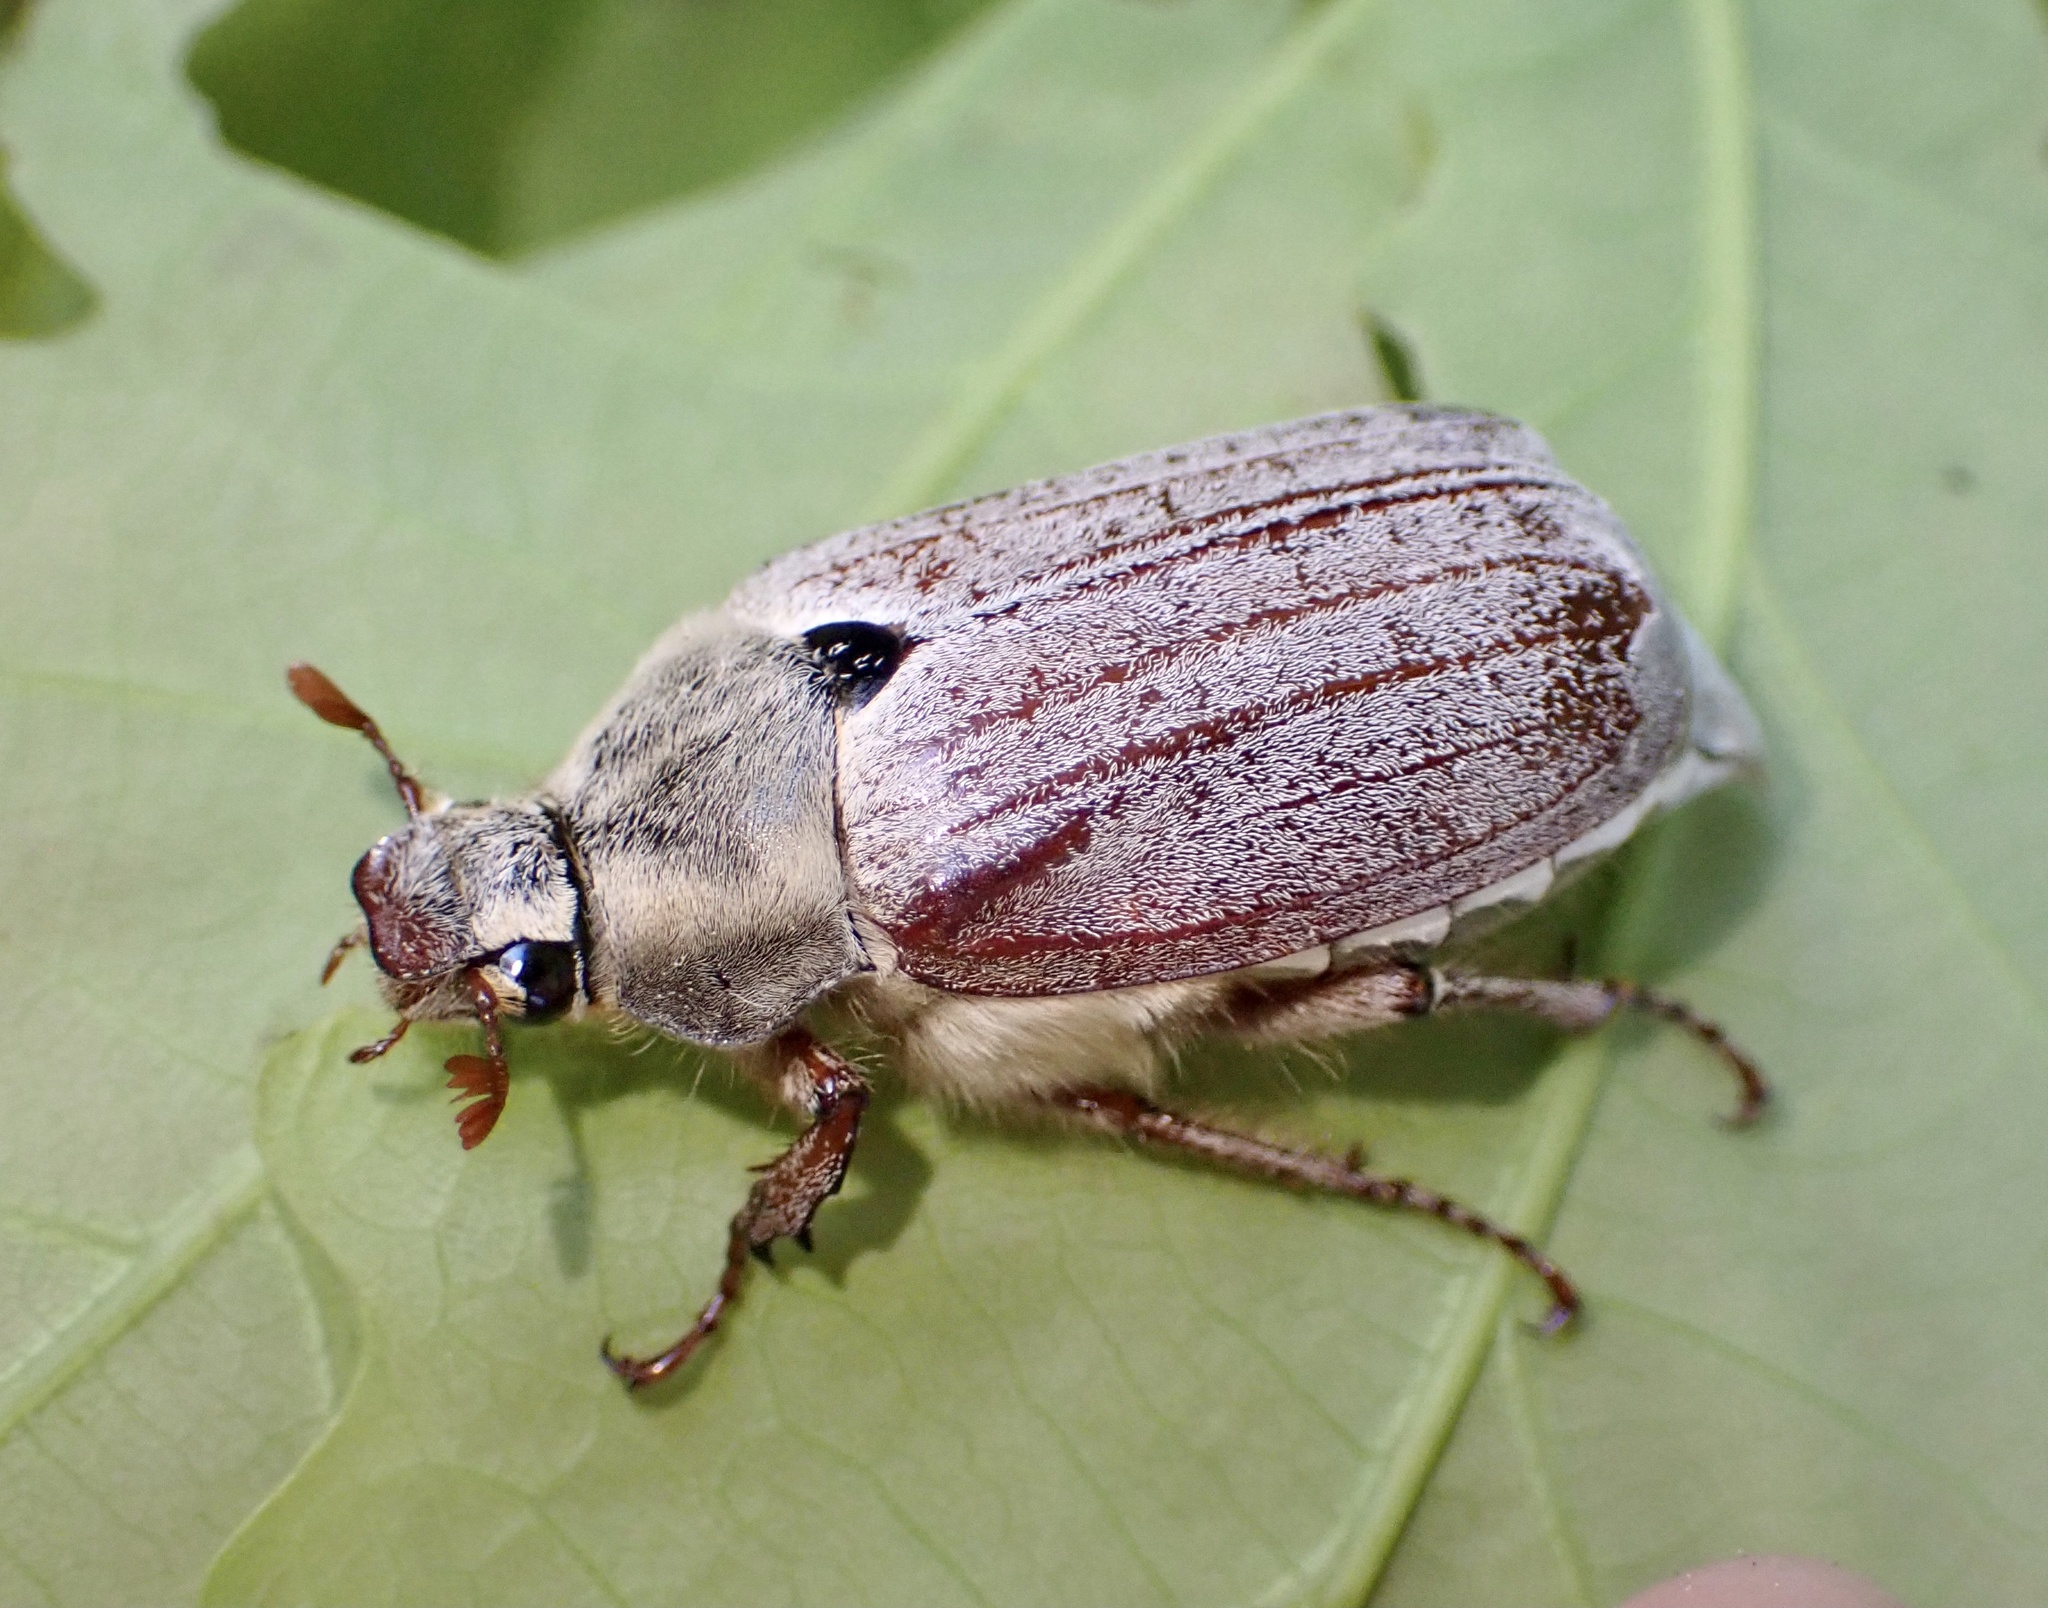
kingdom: Animalia
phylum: Arthropoda
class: Insecta
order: Coleoptera
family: Scarabaeidae
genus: Melolontha
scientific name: Melolontha melolontha
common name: Cockchafer maybeetle
